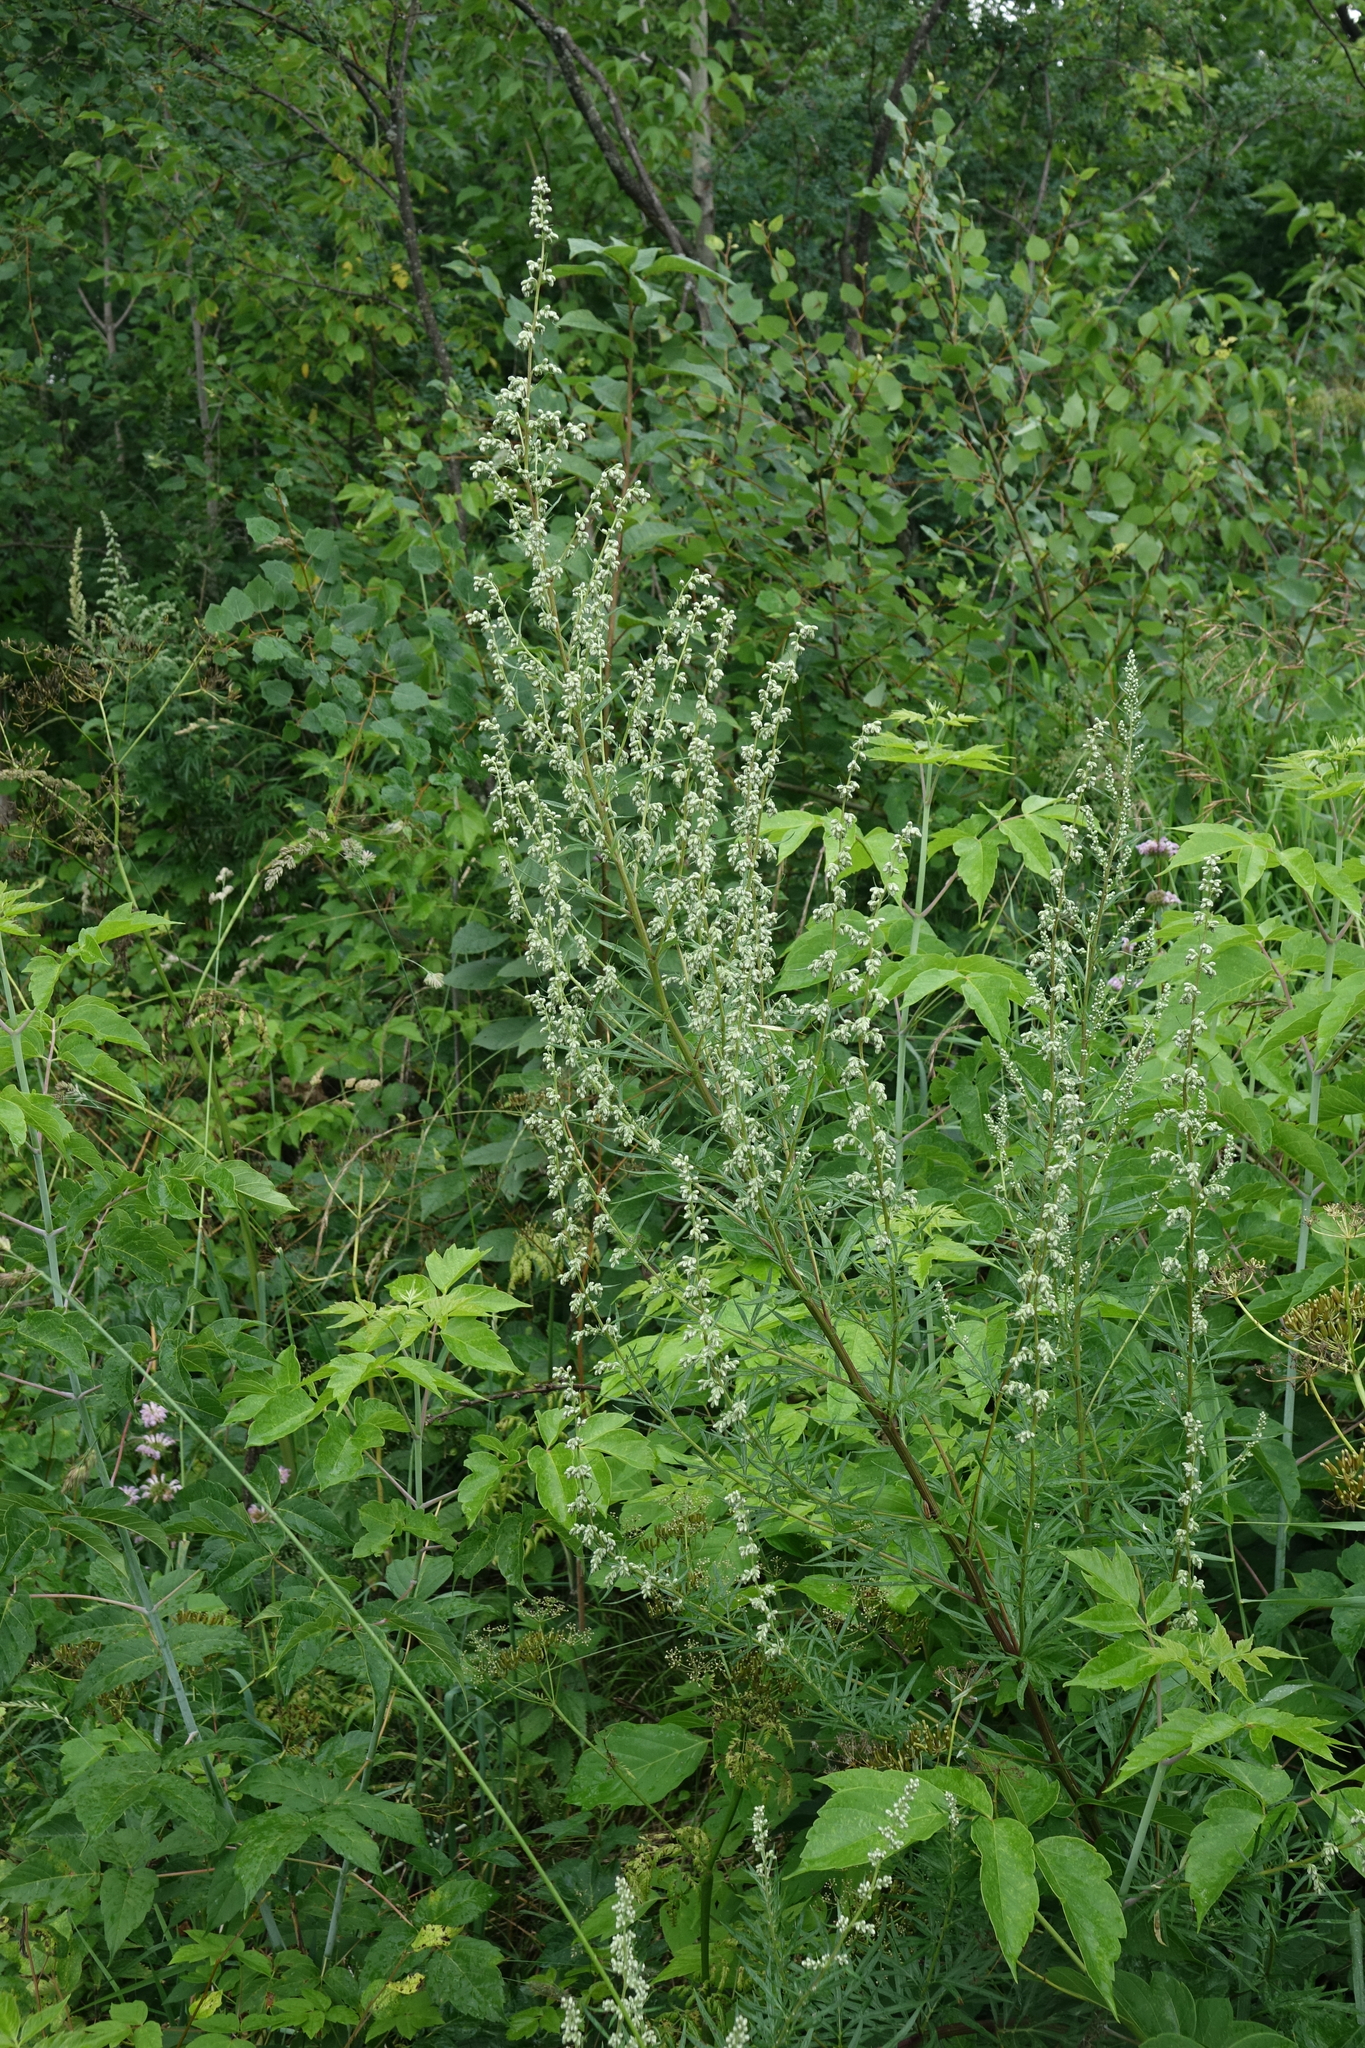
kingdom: Plantae
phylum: Tracheophyta
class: Magnoliopsida
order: Asterales
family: Asteraceae
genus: Artemisia
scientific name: Artemisia vulgaris
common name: Mugwort
